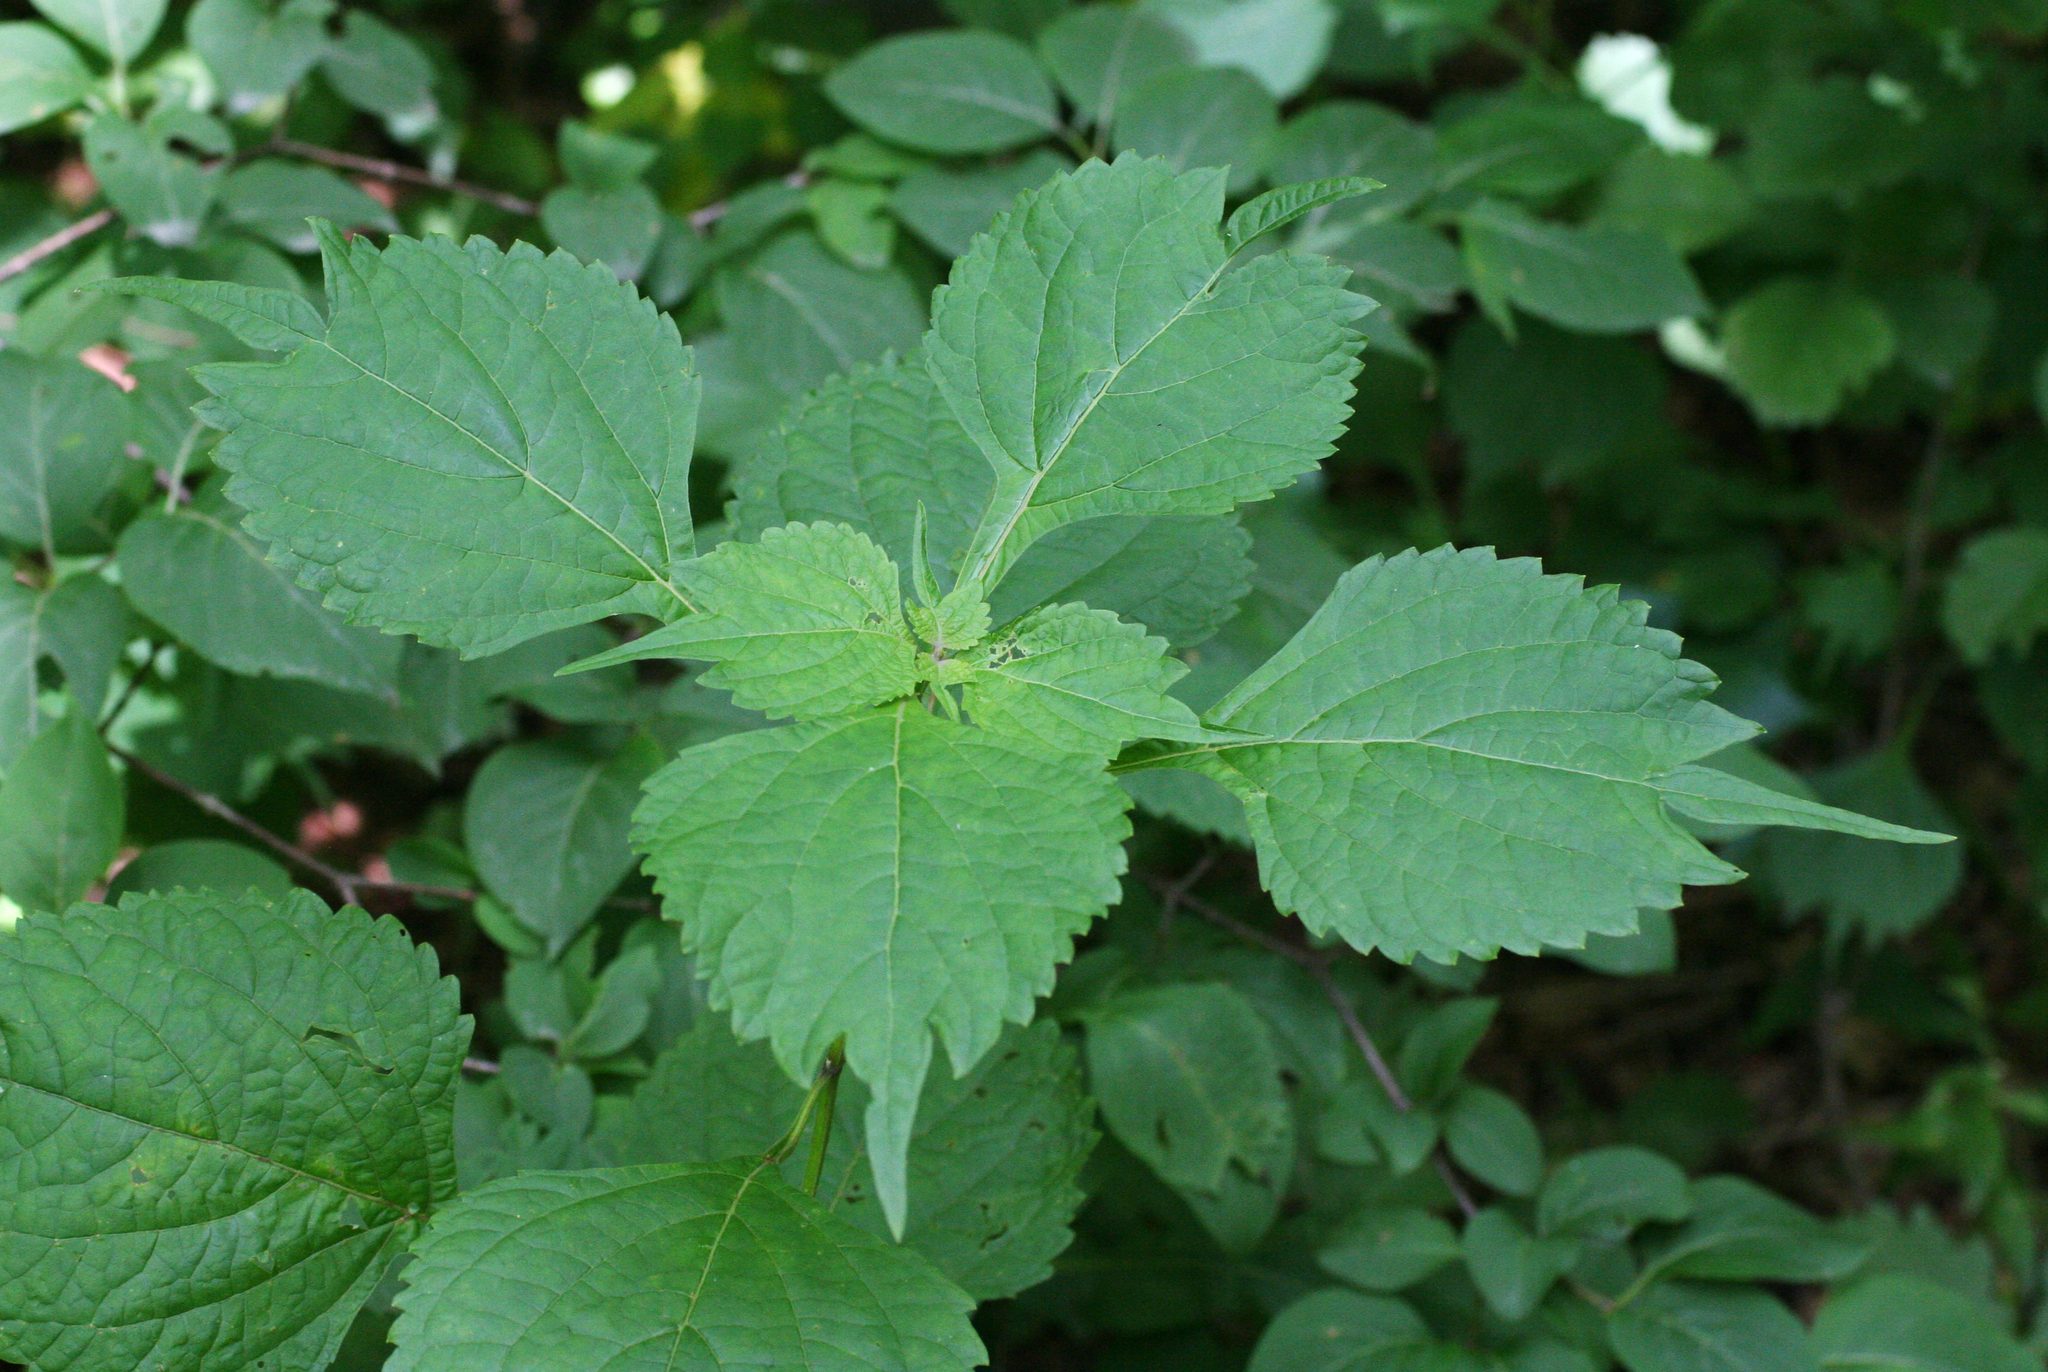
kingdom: Plantae
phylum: Tracheophyta
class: Magnoliopsida
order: Lamiales
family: Lamiaceae
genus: Isodon
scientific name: Isodon excisus
